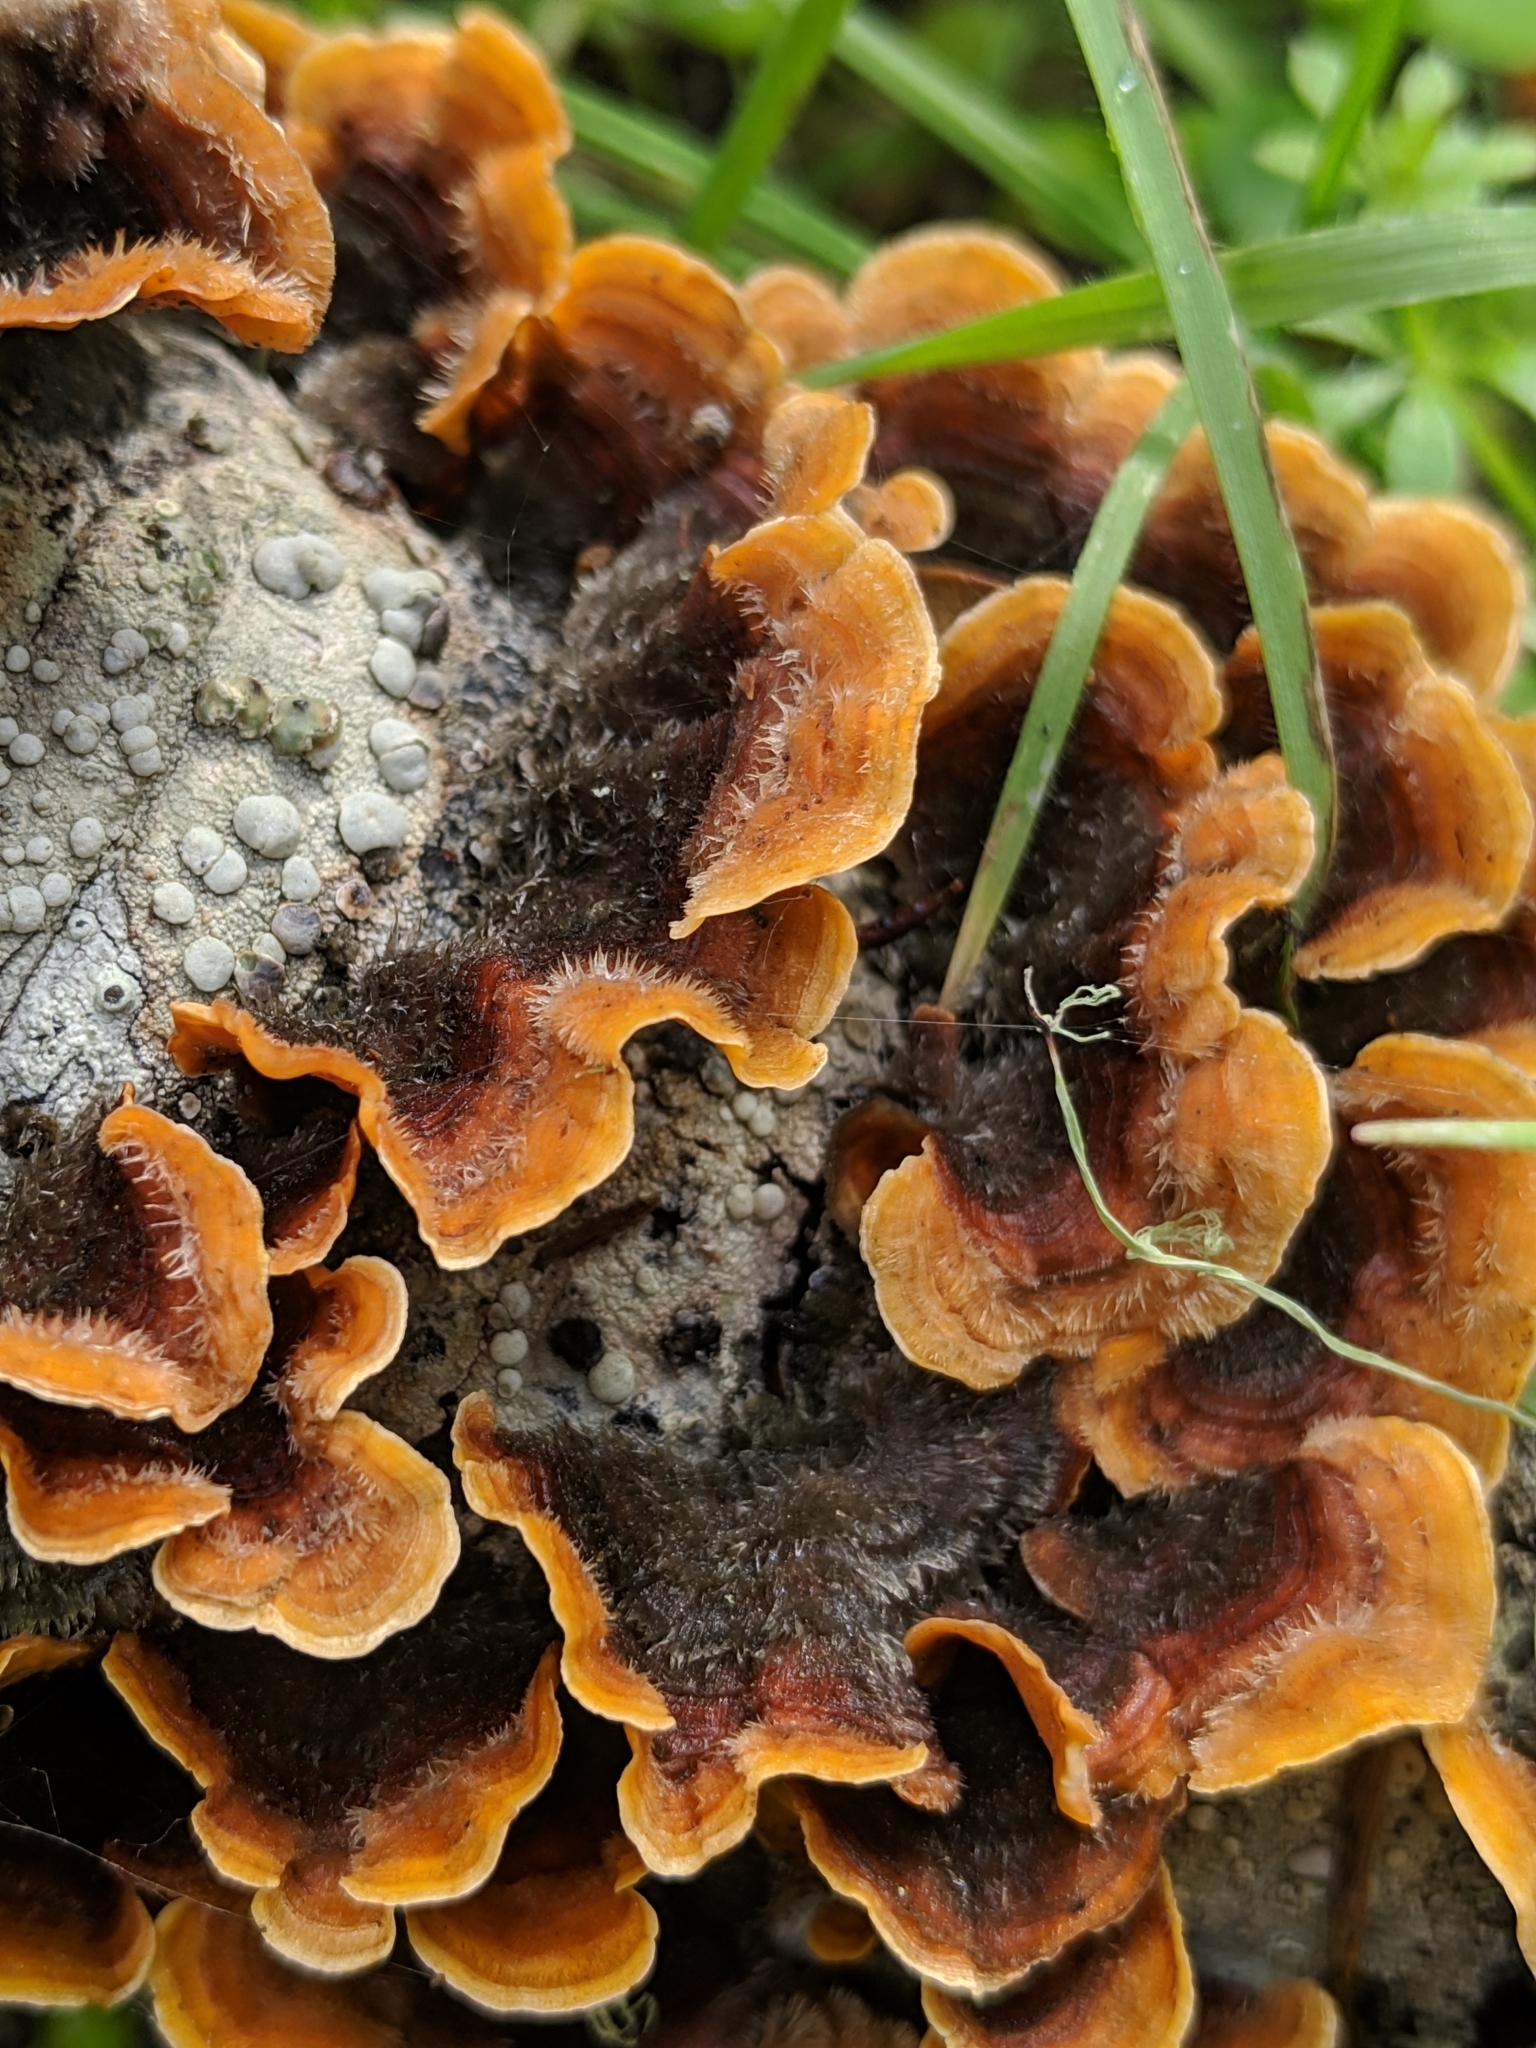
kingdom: Fungi
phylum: Basidiomycota
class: Agaricomycetes
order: Russulales
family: Stereaceae
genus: Stereum
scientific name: Stereum hirsutum
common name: Hairy curtain crust
